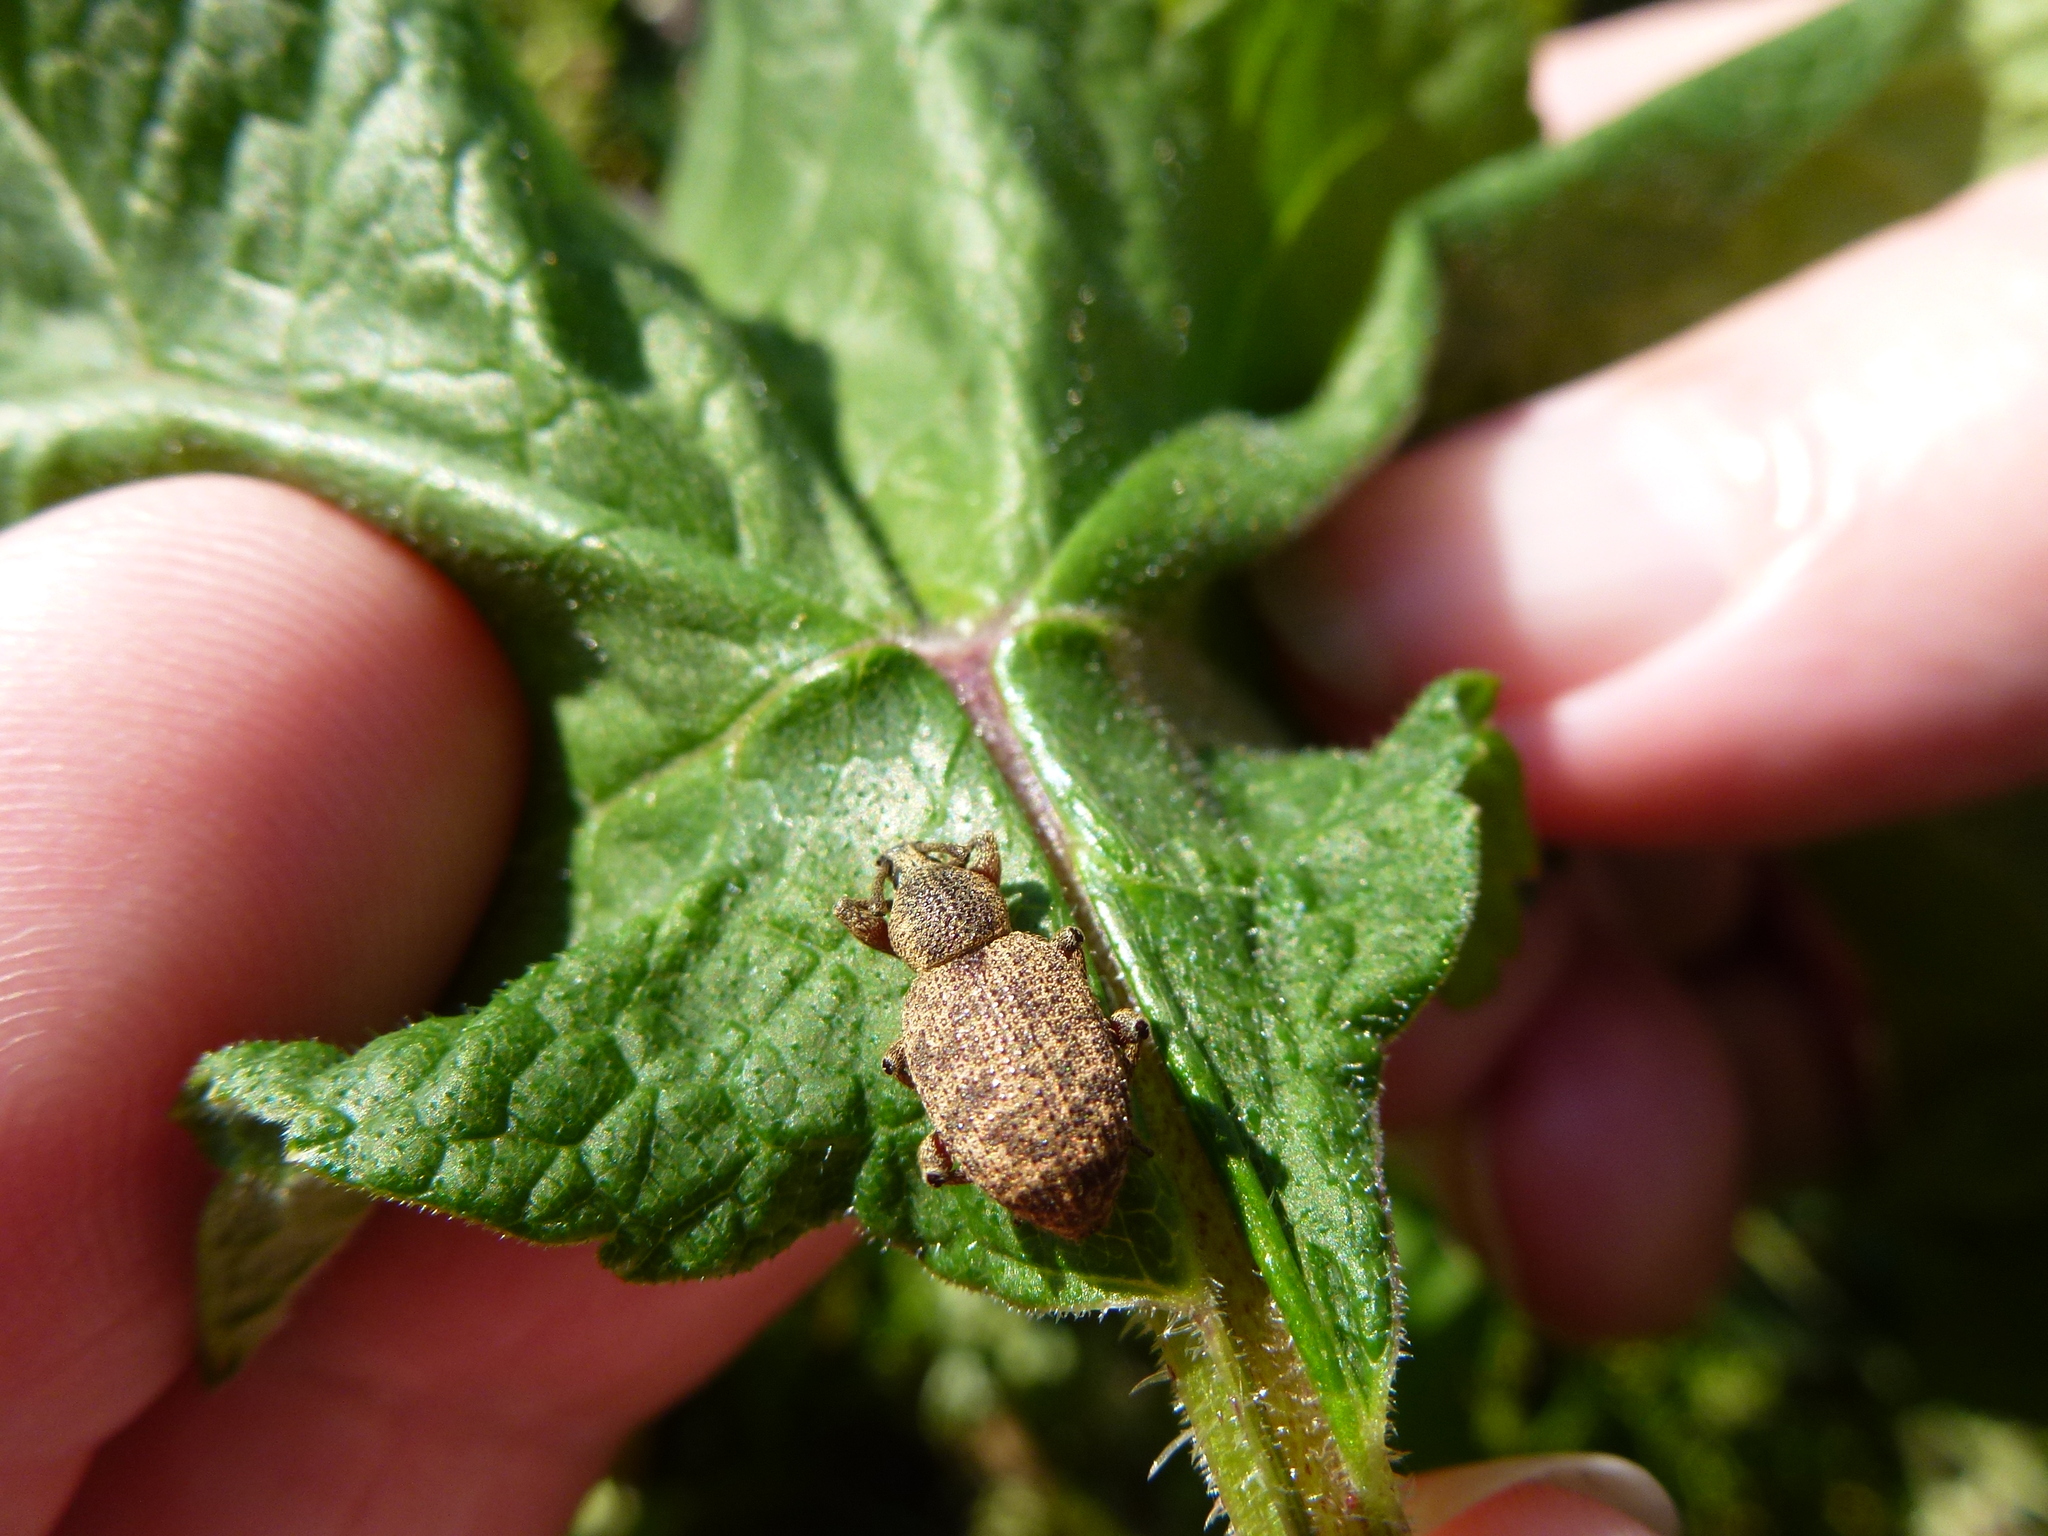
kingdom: Animalia
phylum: Arthropoda
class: Insecta
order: Coleoptera
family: Curculionidae
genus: Otiorhynchus
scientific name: Otiorhynchus singularis
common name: Clay-coloured weevil
